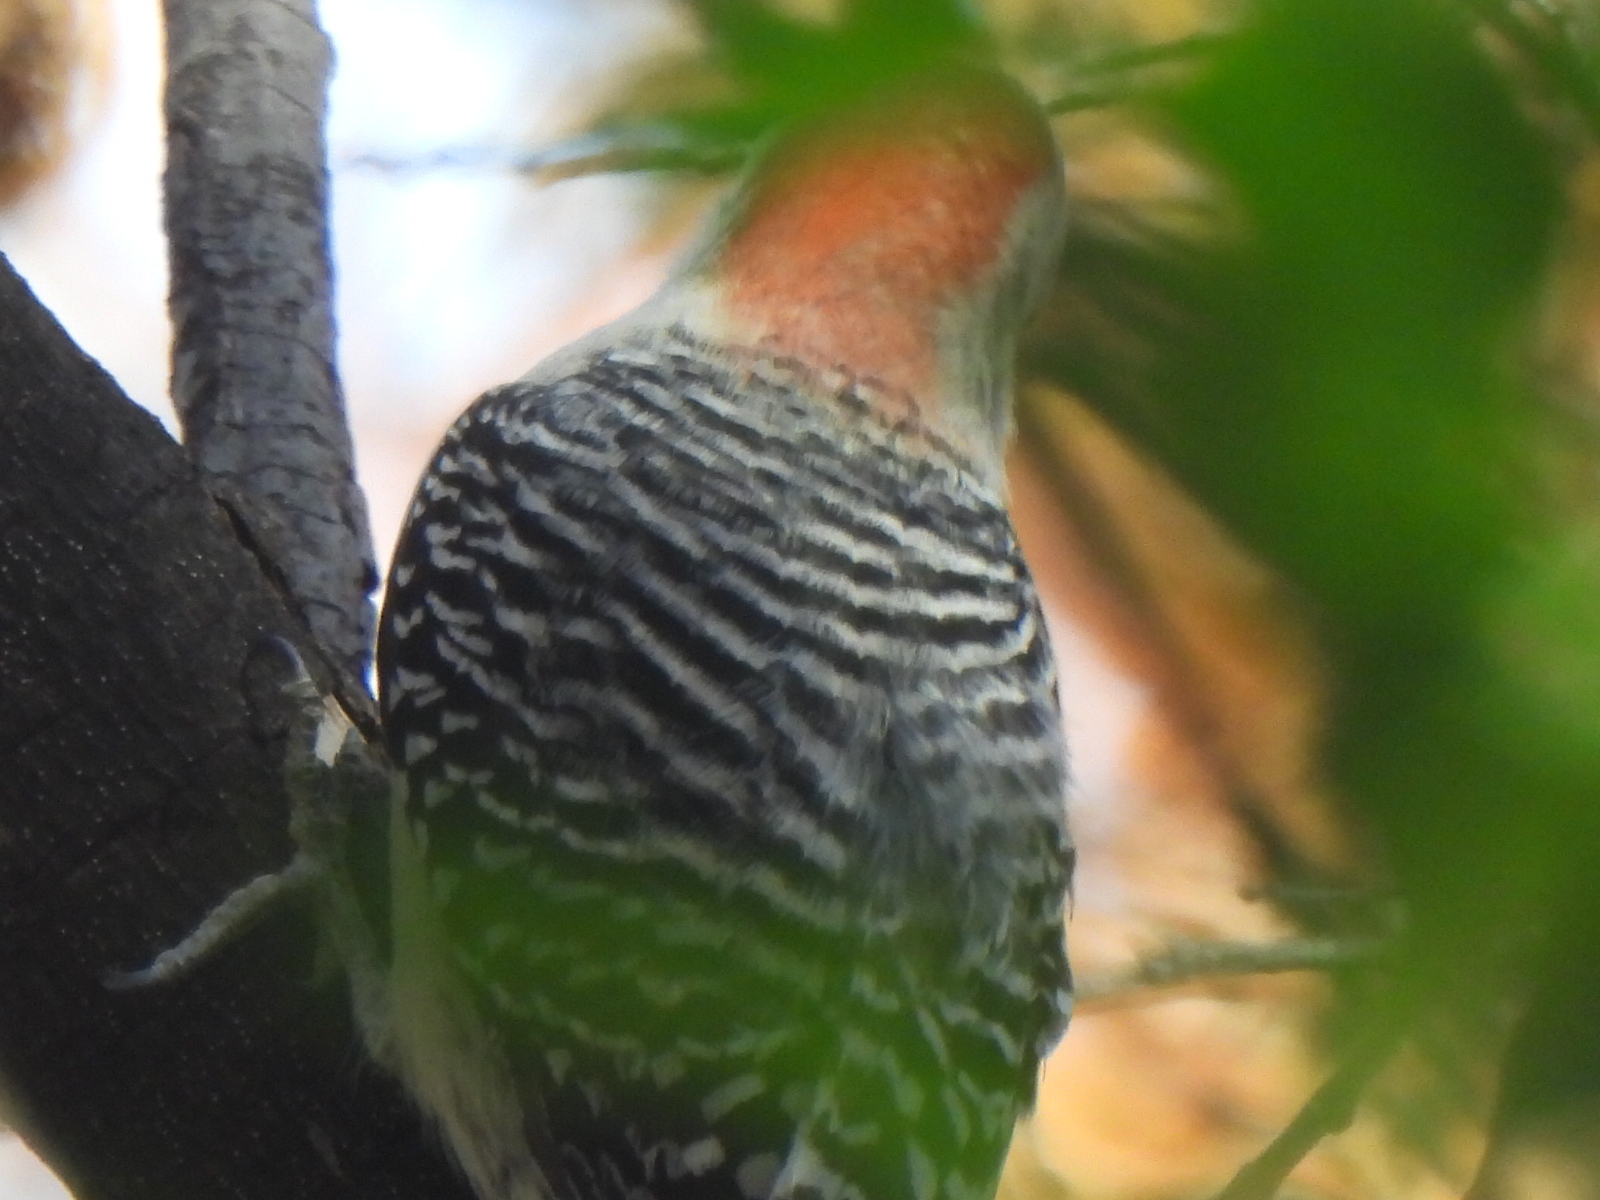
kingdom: Animalia
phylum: Chordata
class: Aves
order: Piciformes
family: Picidae
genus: Melanerpes
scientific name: Melanerpes carolinus
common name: Red-bellied woodpecker
